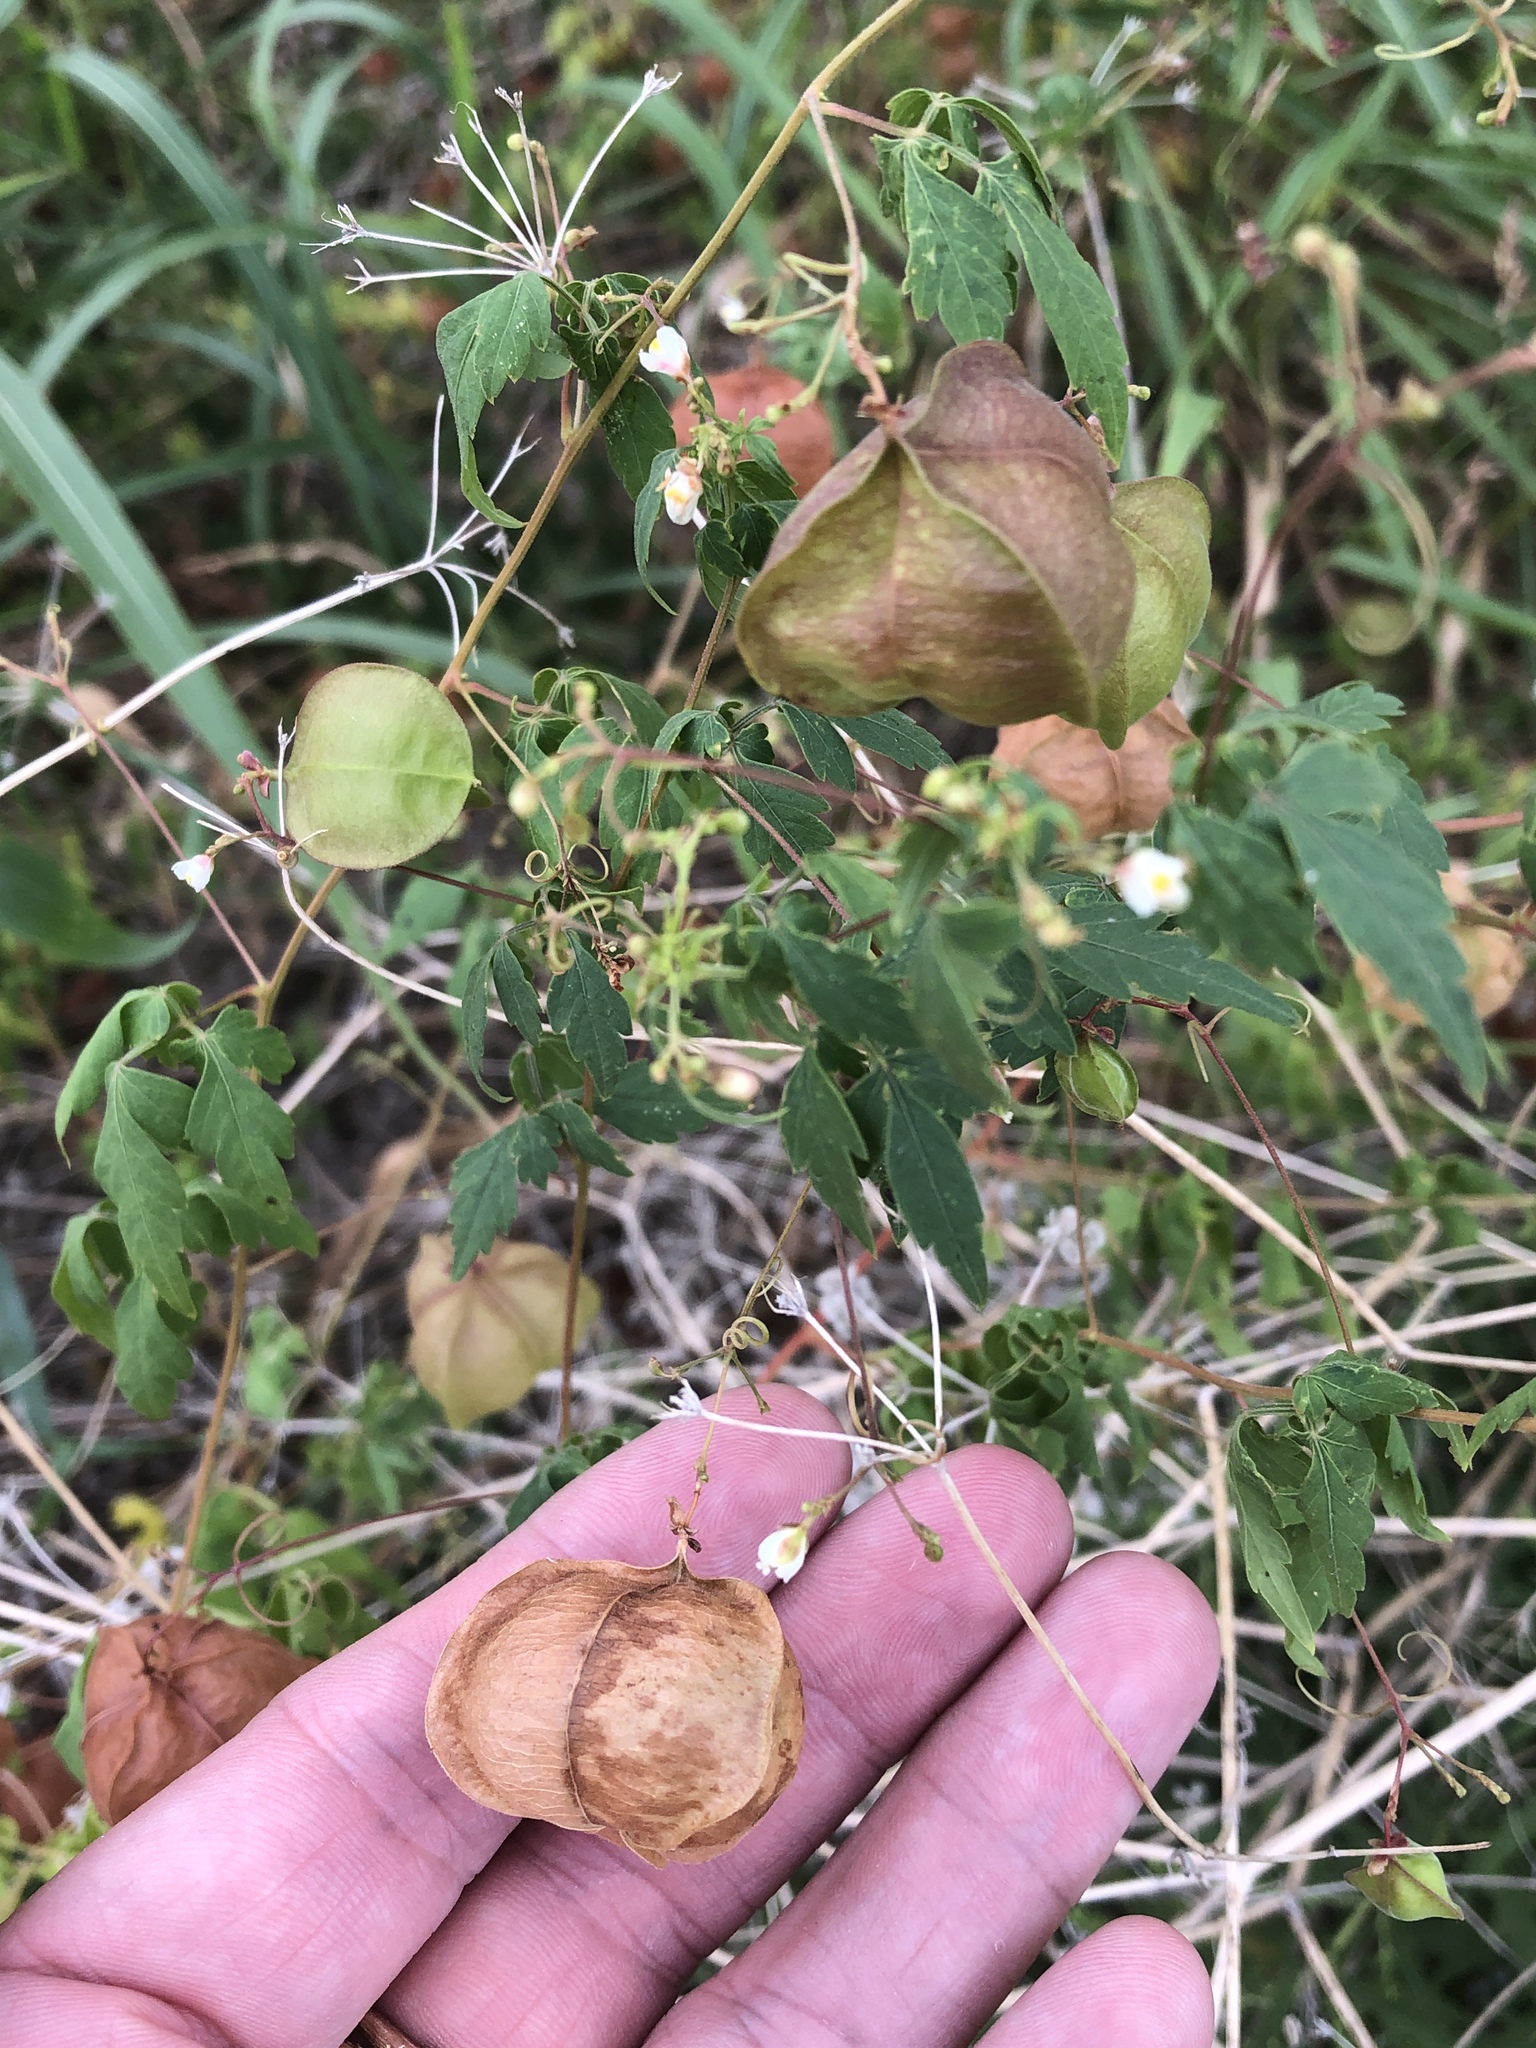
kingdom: Plantae
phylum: Tracheophyta
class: Magnoliopsida
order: Sapindales
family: Sapindaceae
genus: Cardiospermum
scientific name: Cardiospermum halicacabum
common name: Balloon vine
